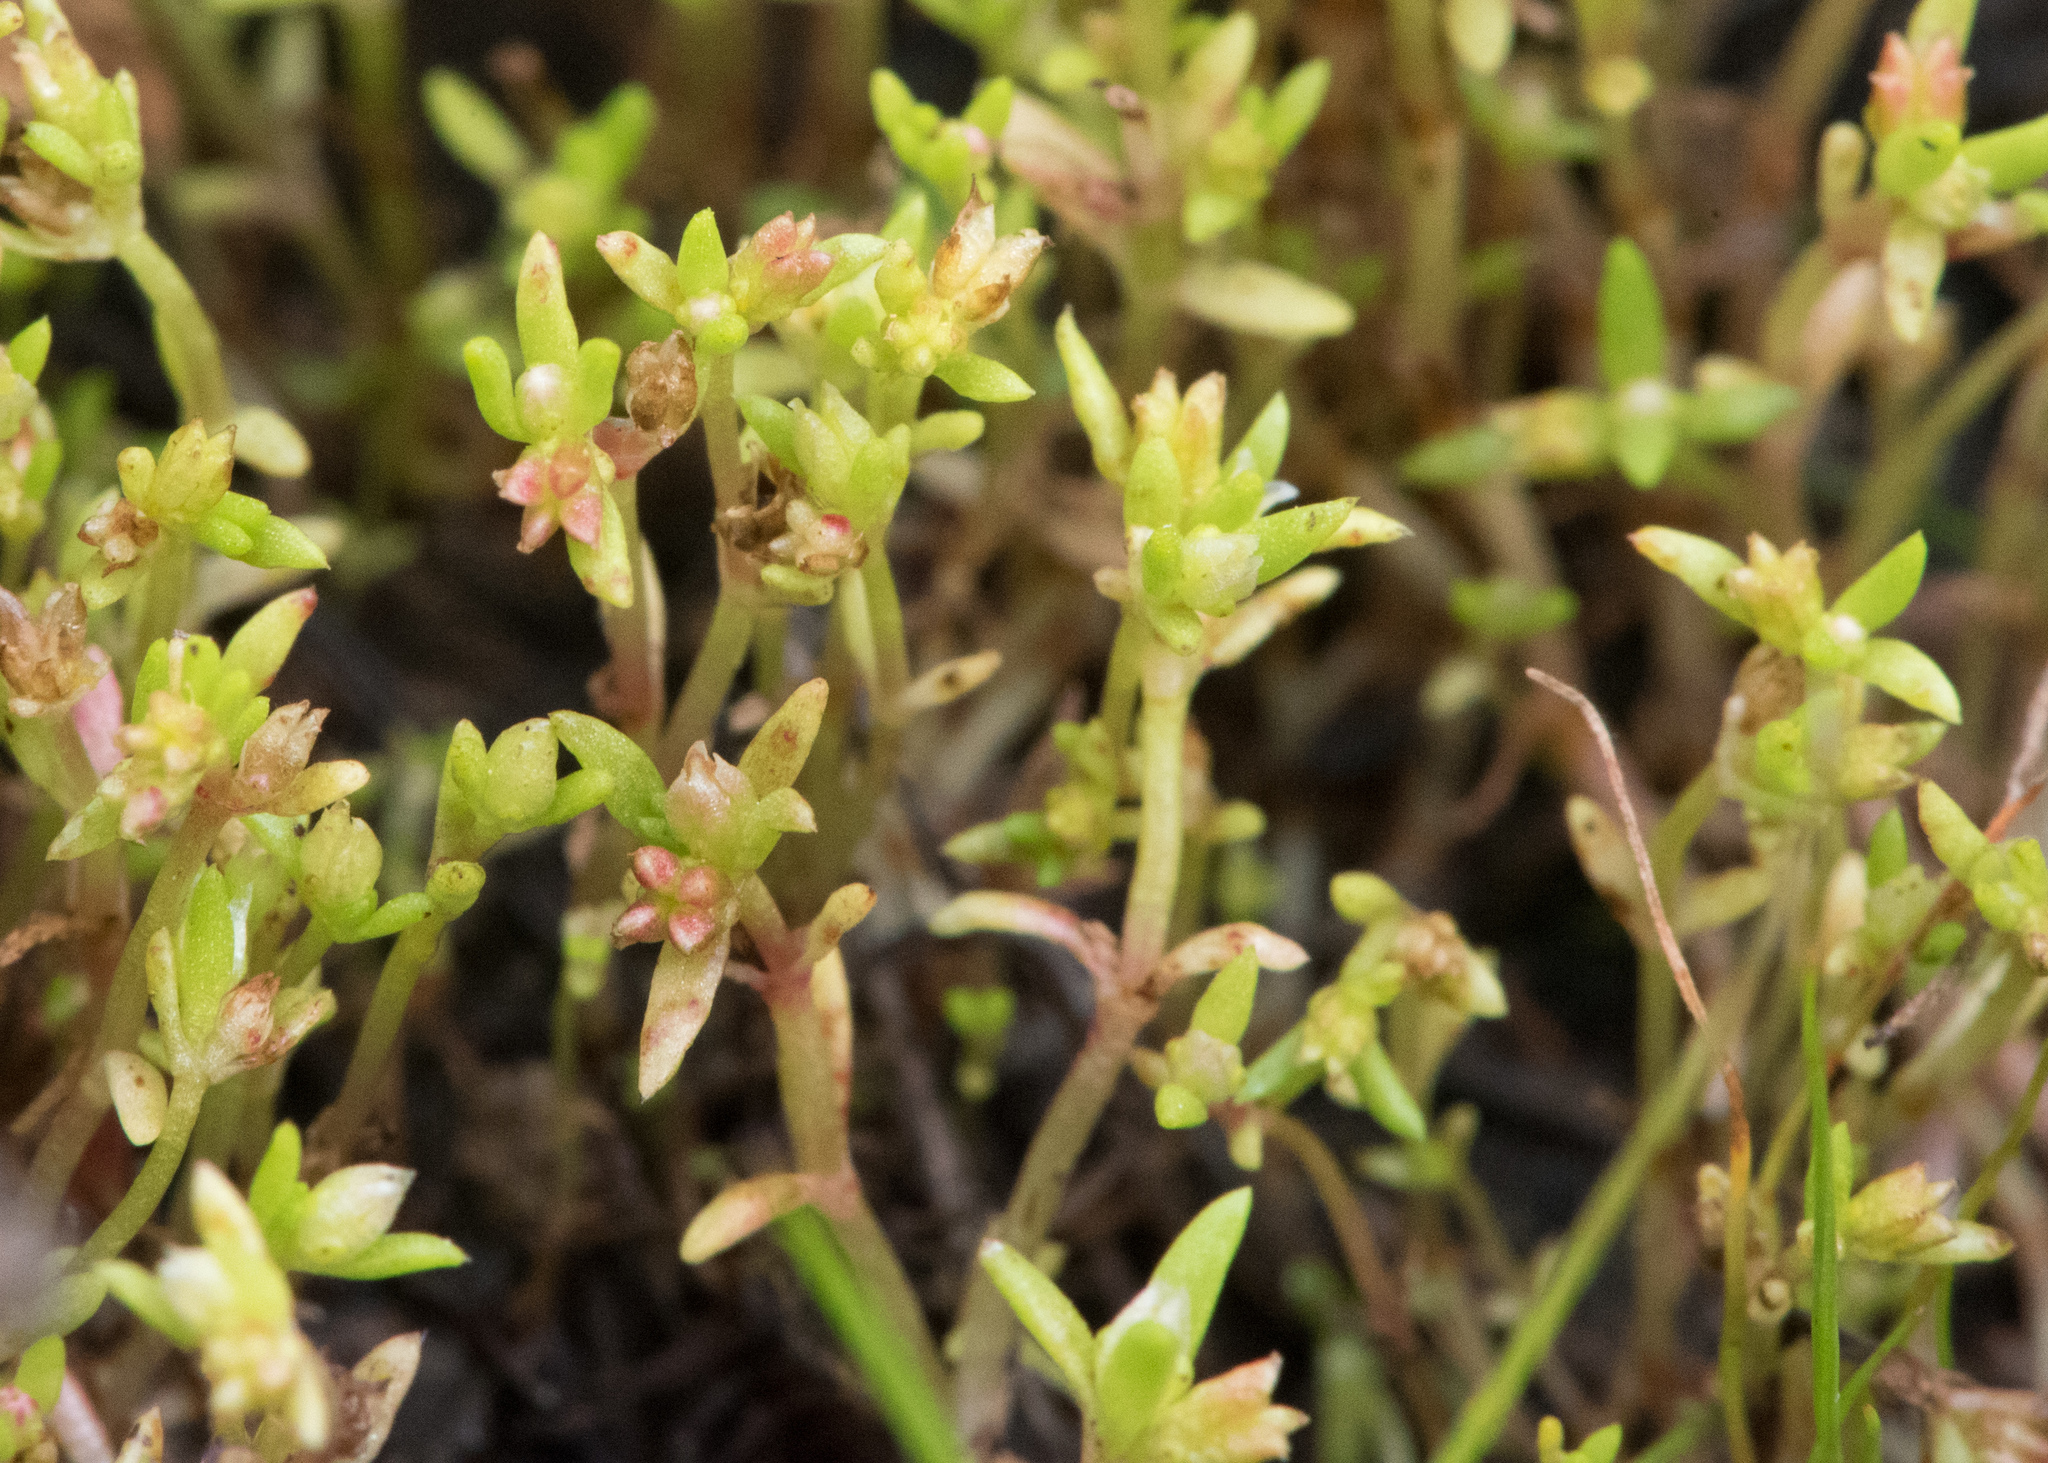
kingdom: Plantae
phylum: Tracheophyta
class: Magnoliopsida
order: Saxifragales
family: Crassulaceae
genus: Crassula
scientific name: Crassula aquatica
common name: Pigmyweed
